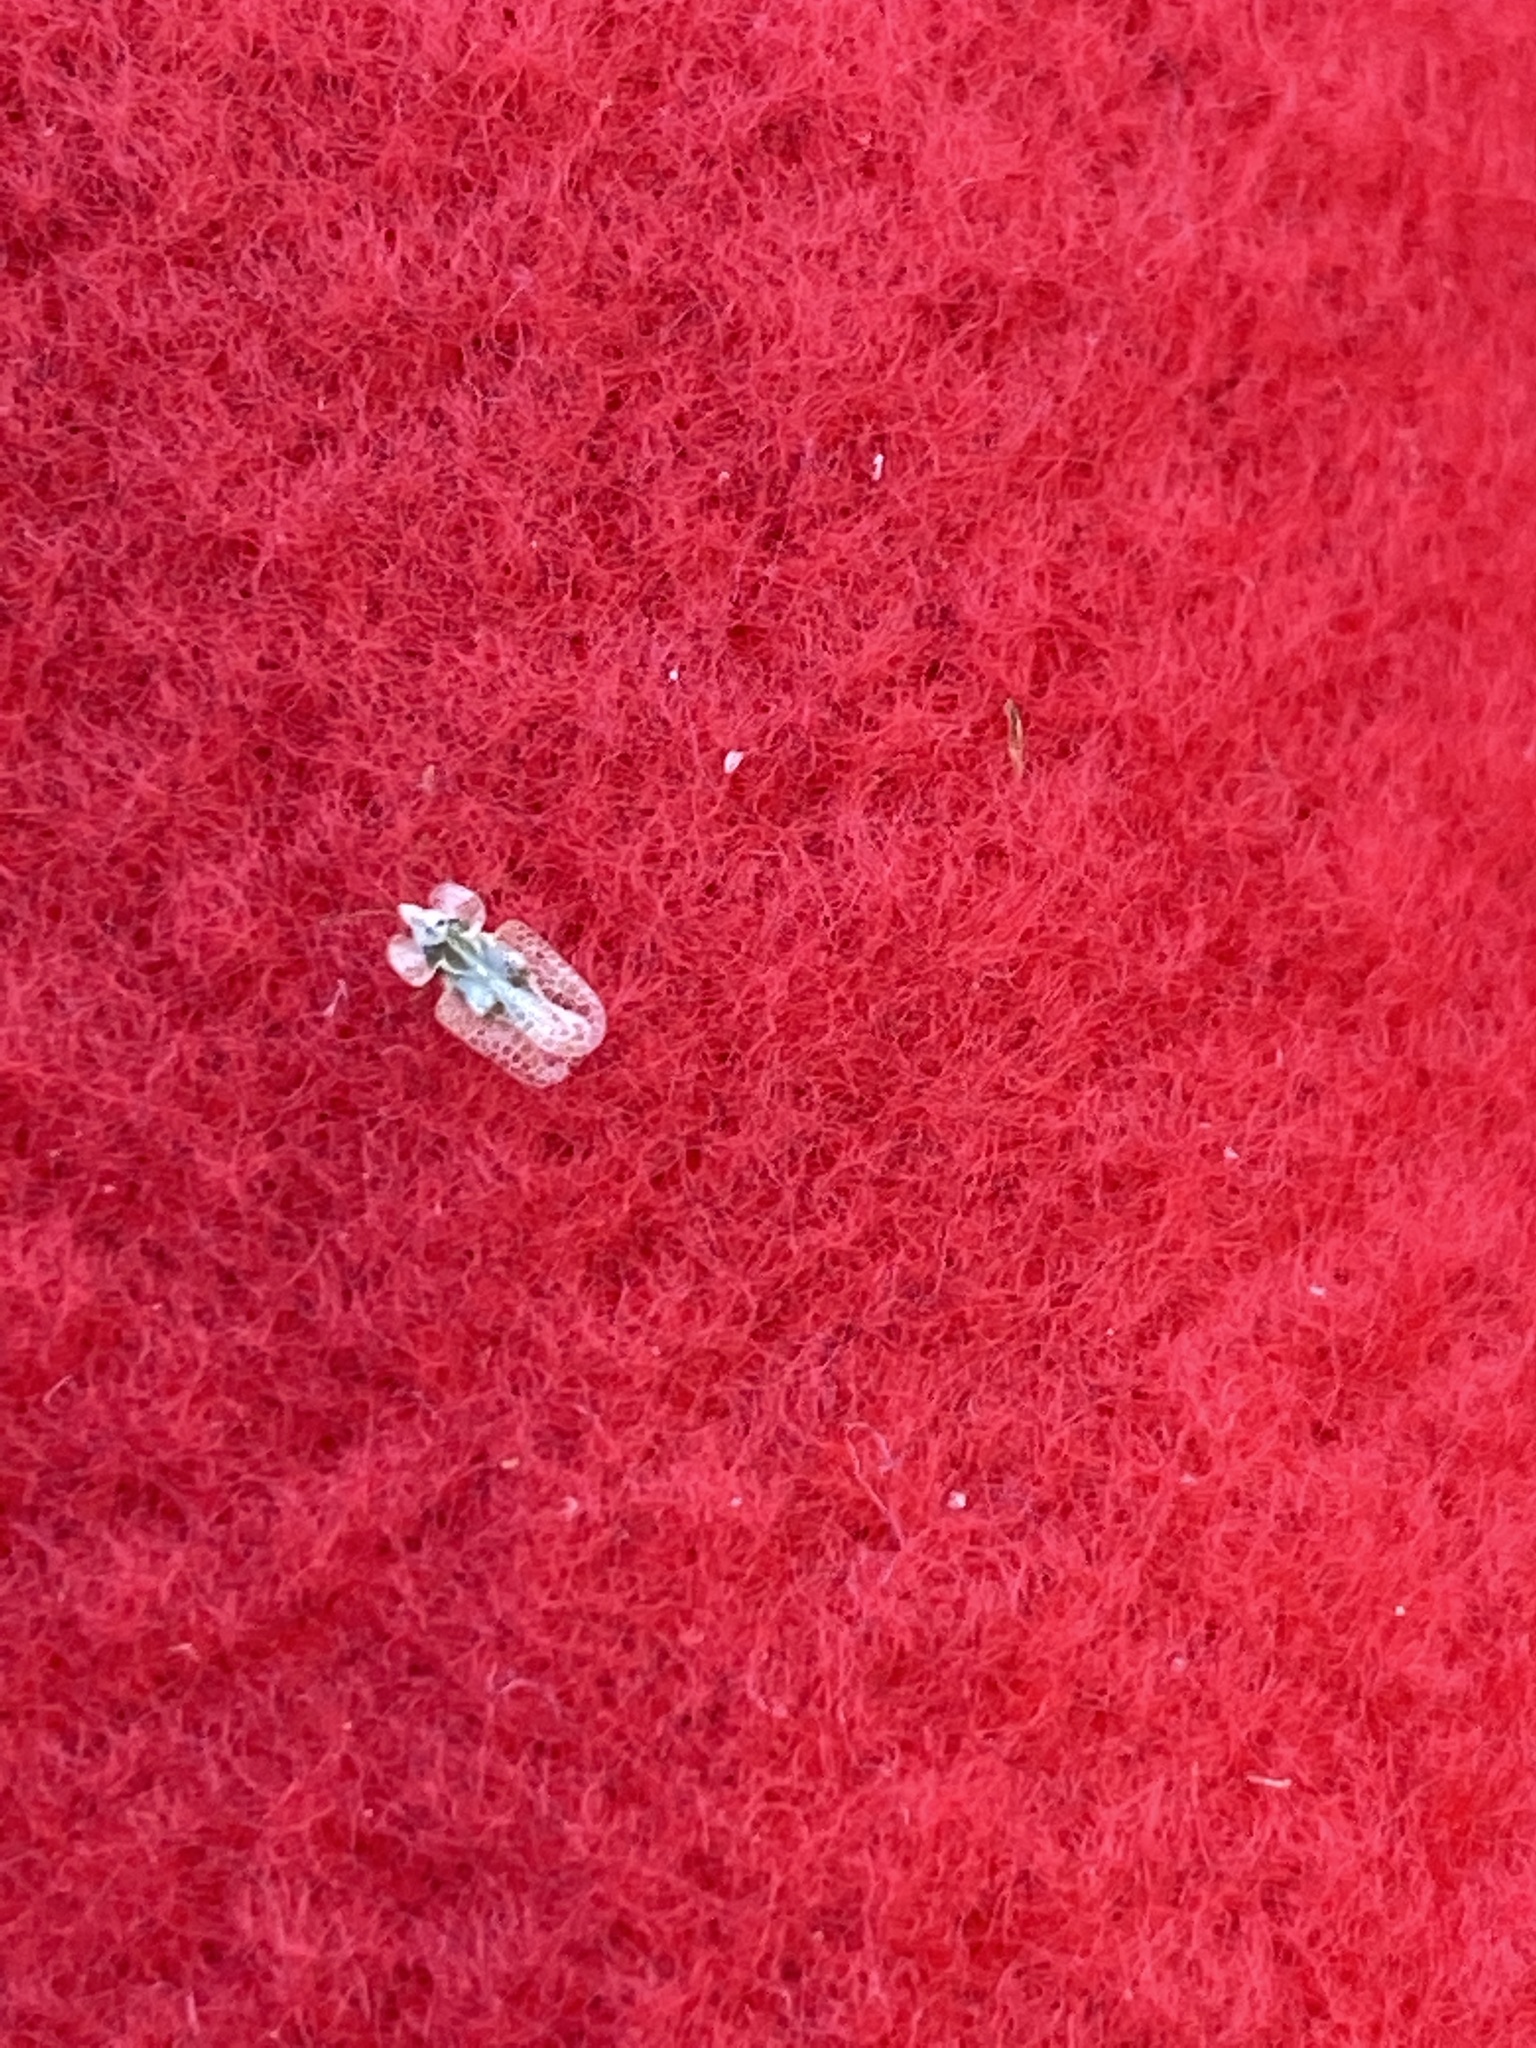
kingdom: Animalia
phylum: Arthropoda
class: Insecta
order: Hemiptera
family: Tingidae
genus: Corythucha
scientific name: Corythucha ciliata
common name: Sycamore lace bug
